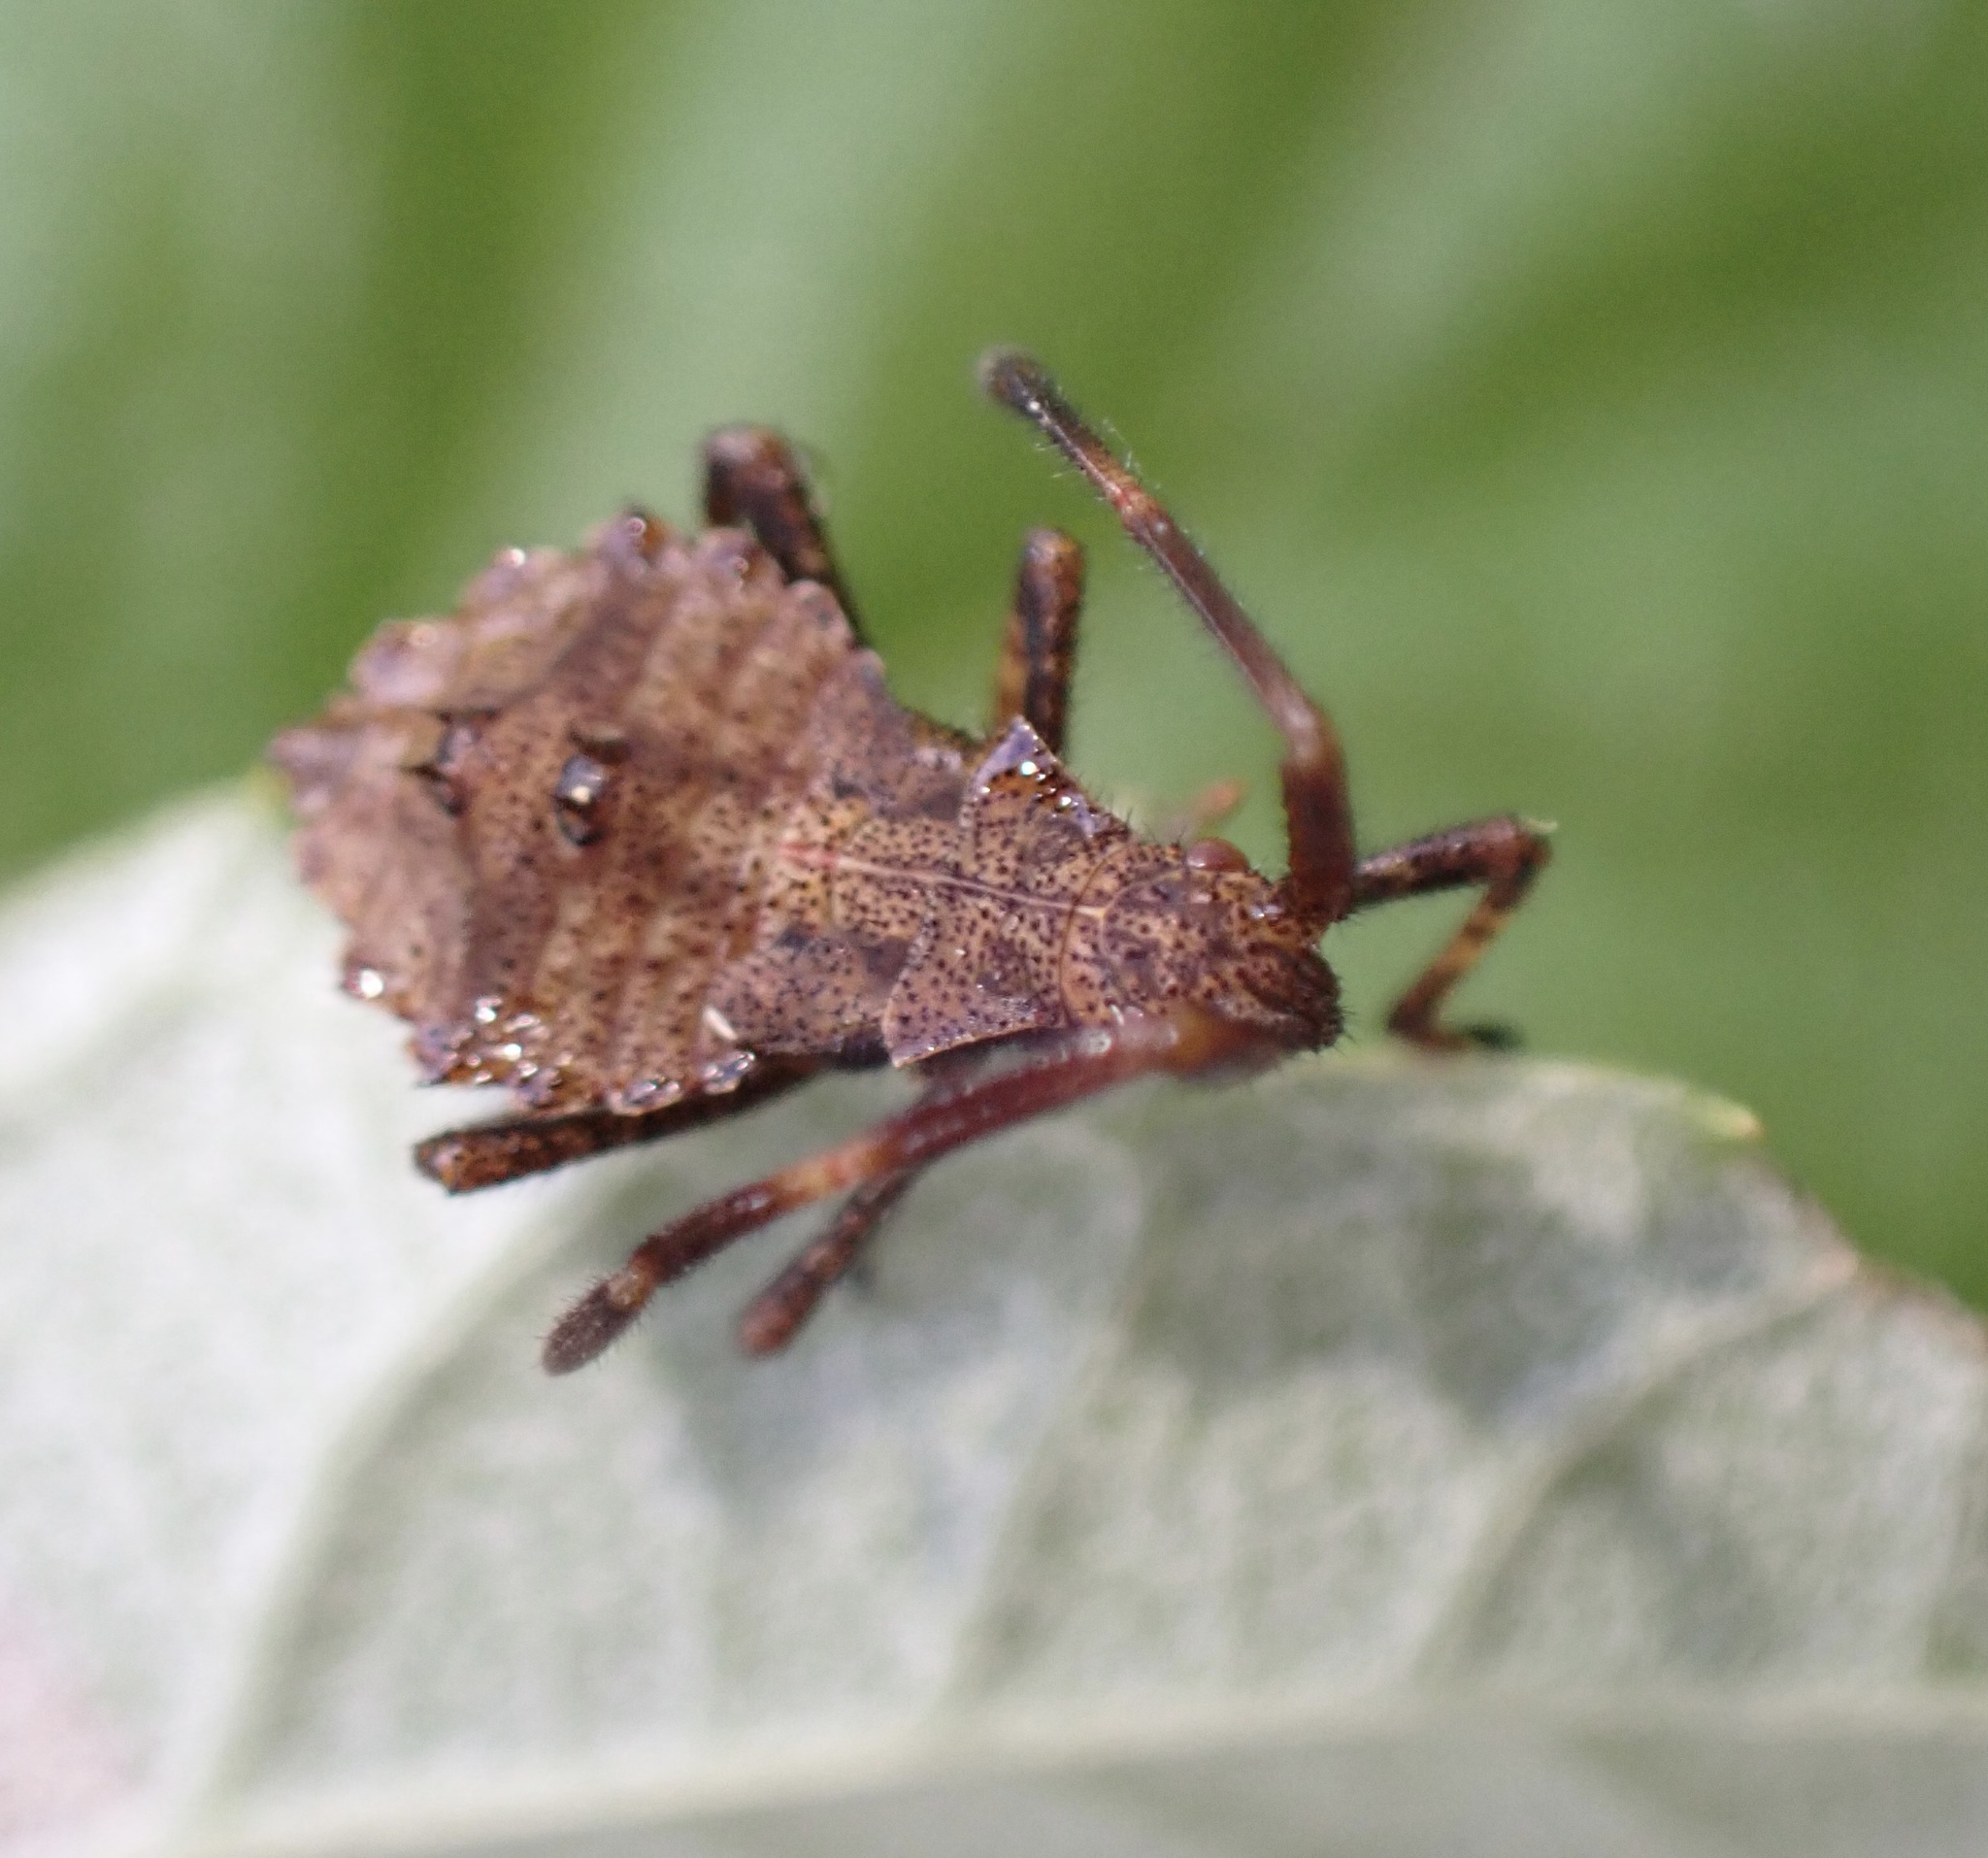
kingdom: Animalia
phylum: Arthropoda
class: Insecta
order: Hemiptera
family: Coreidae
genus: Coreus
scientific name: Coreus marginatus
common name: Dock bug
